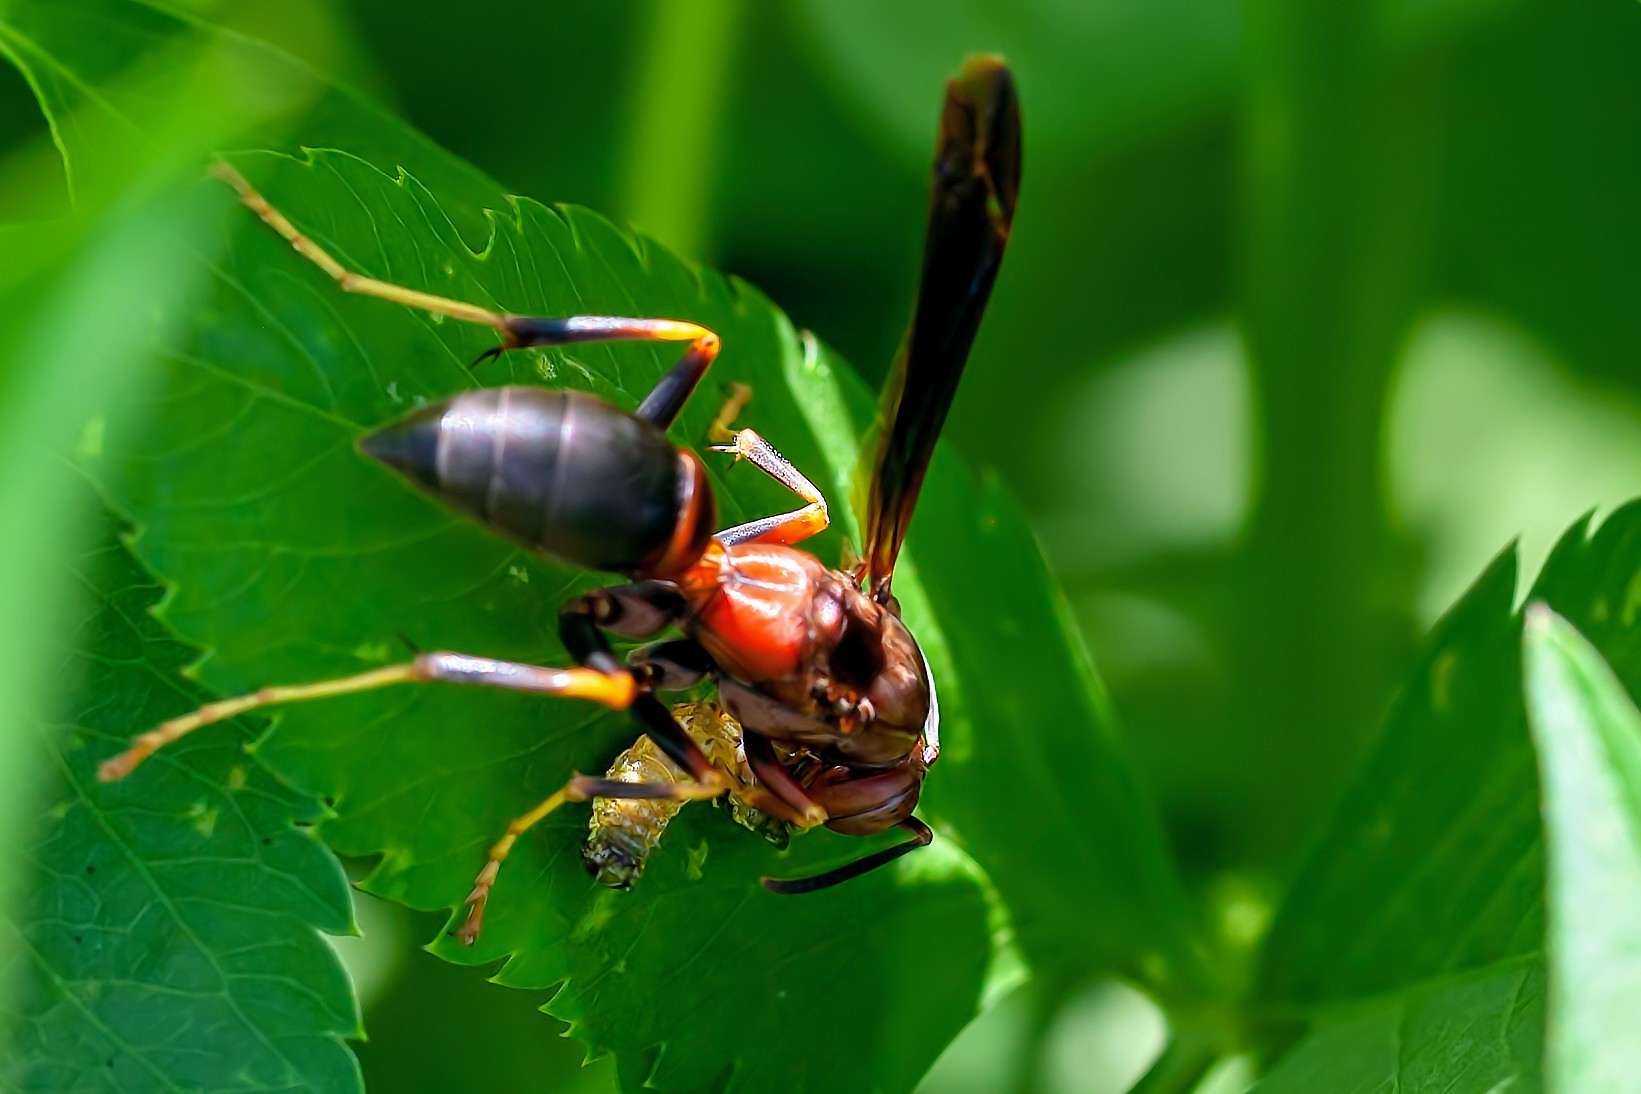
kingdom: Animalia
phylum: Arthropoda
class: Insecta
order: Hymenoptera
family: Eumenidae
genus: Polistes
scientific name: Polistes metricus
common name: Metric paper wasp
